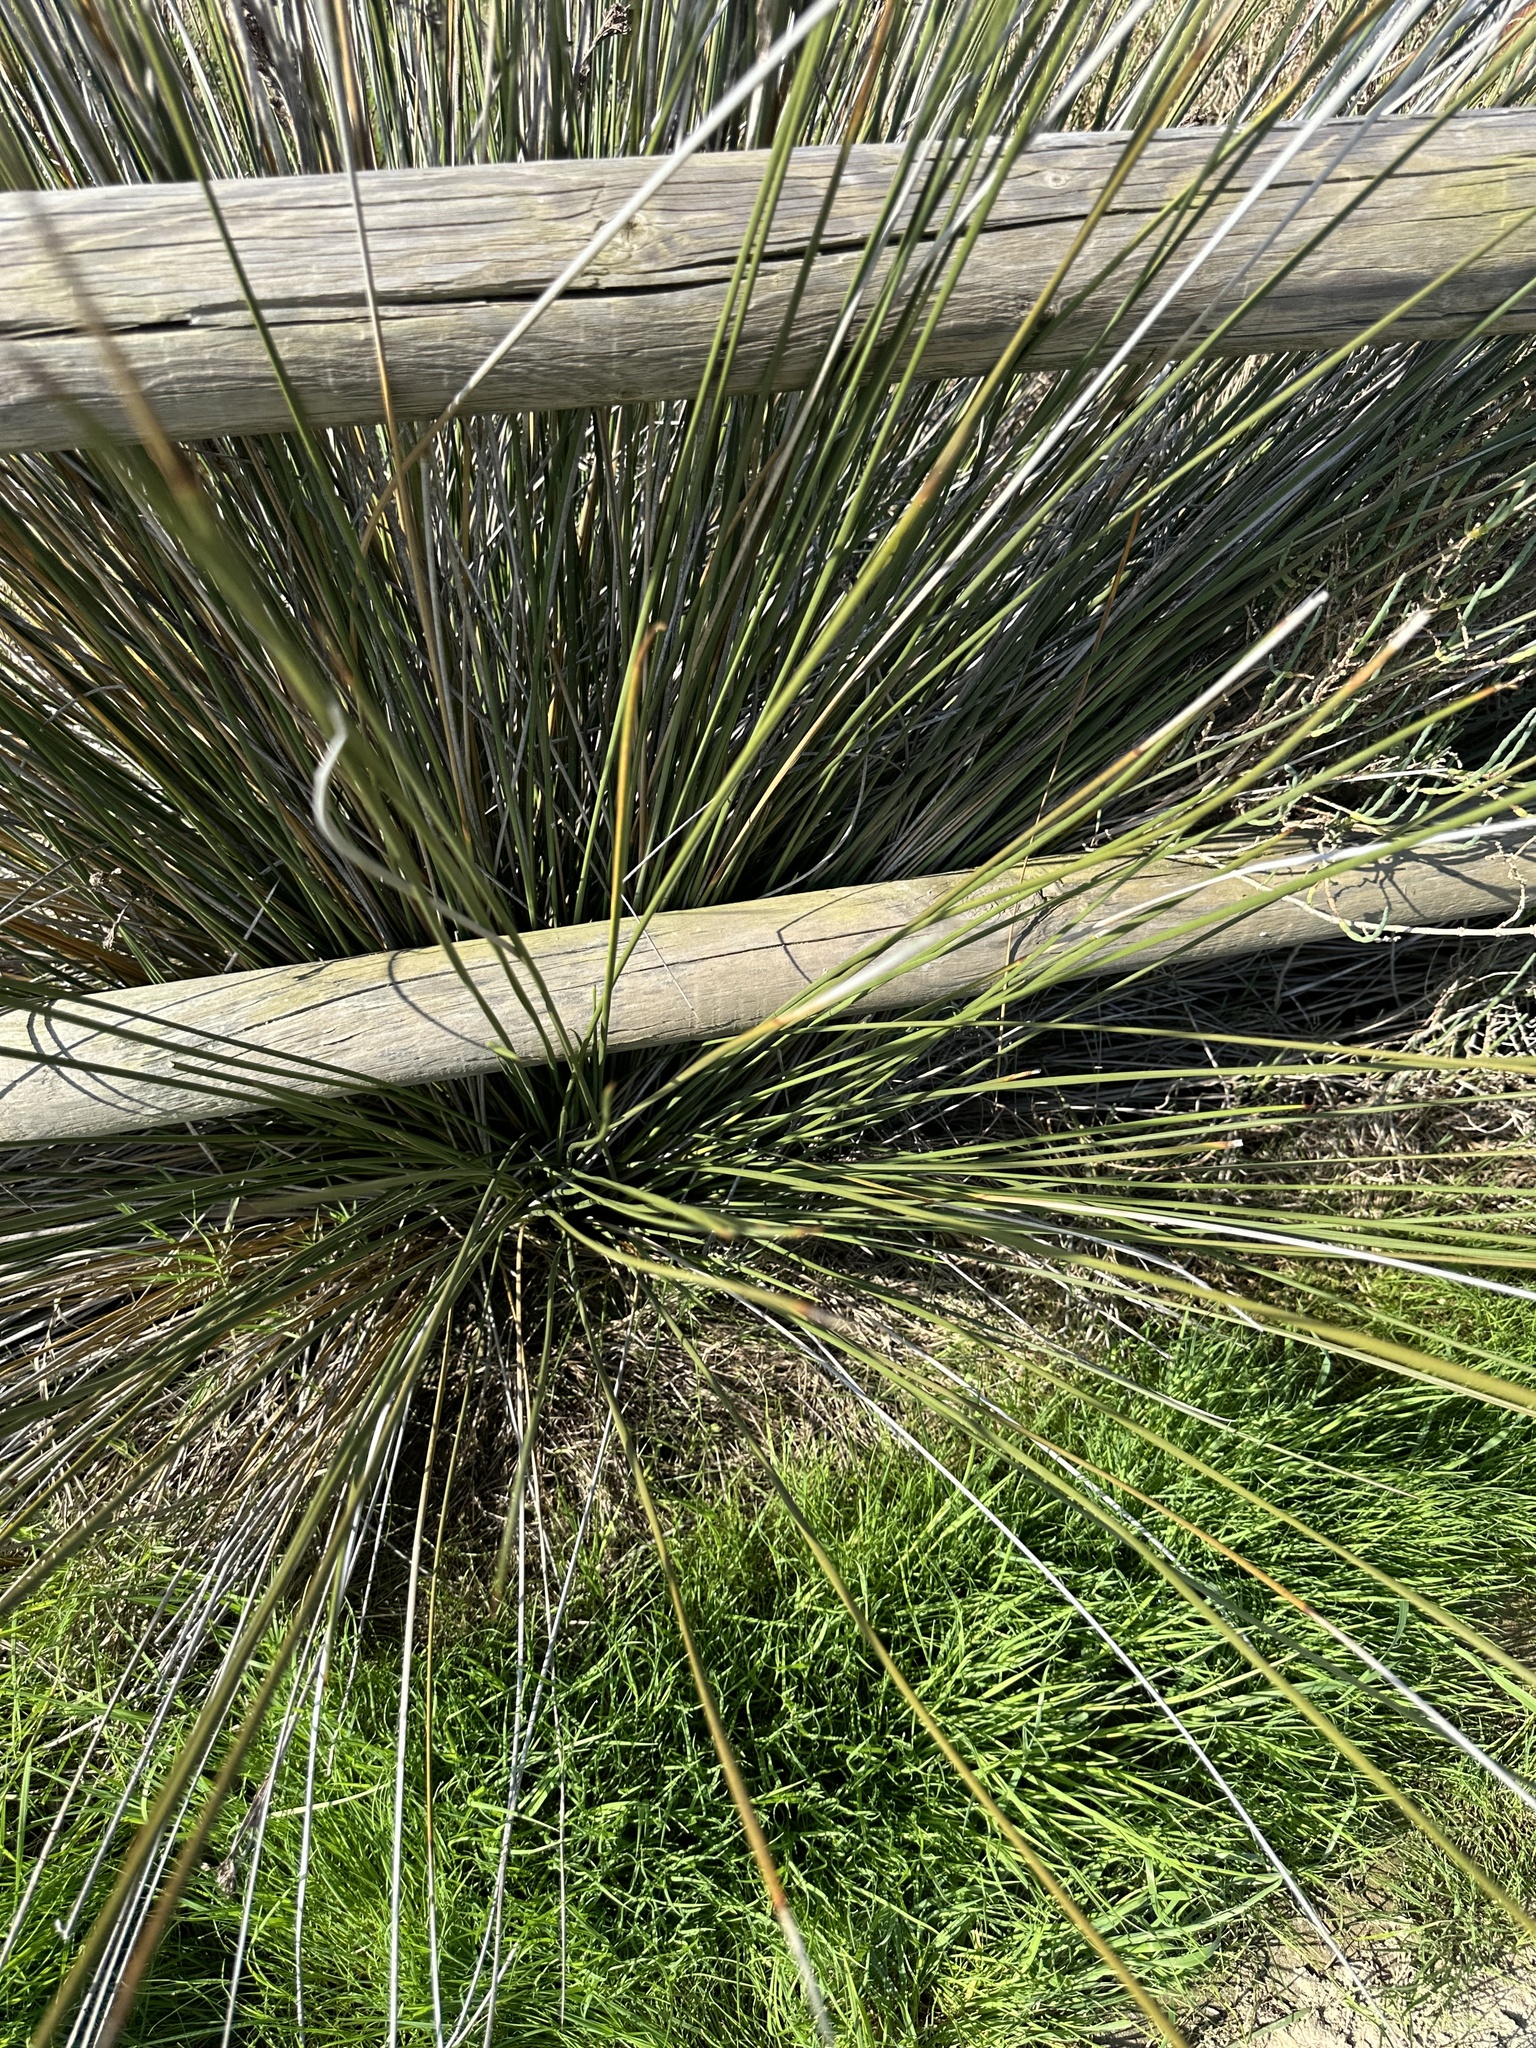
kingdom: Plantae
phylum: Tracheophyta
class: Liliopsida
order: Poales
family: Juncaceae
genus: Juncus
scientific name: Juncus acutus
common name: Sharp rush
